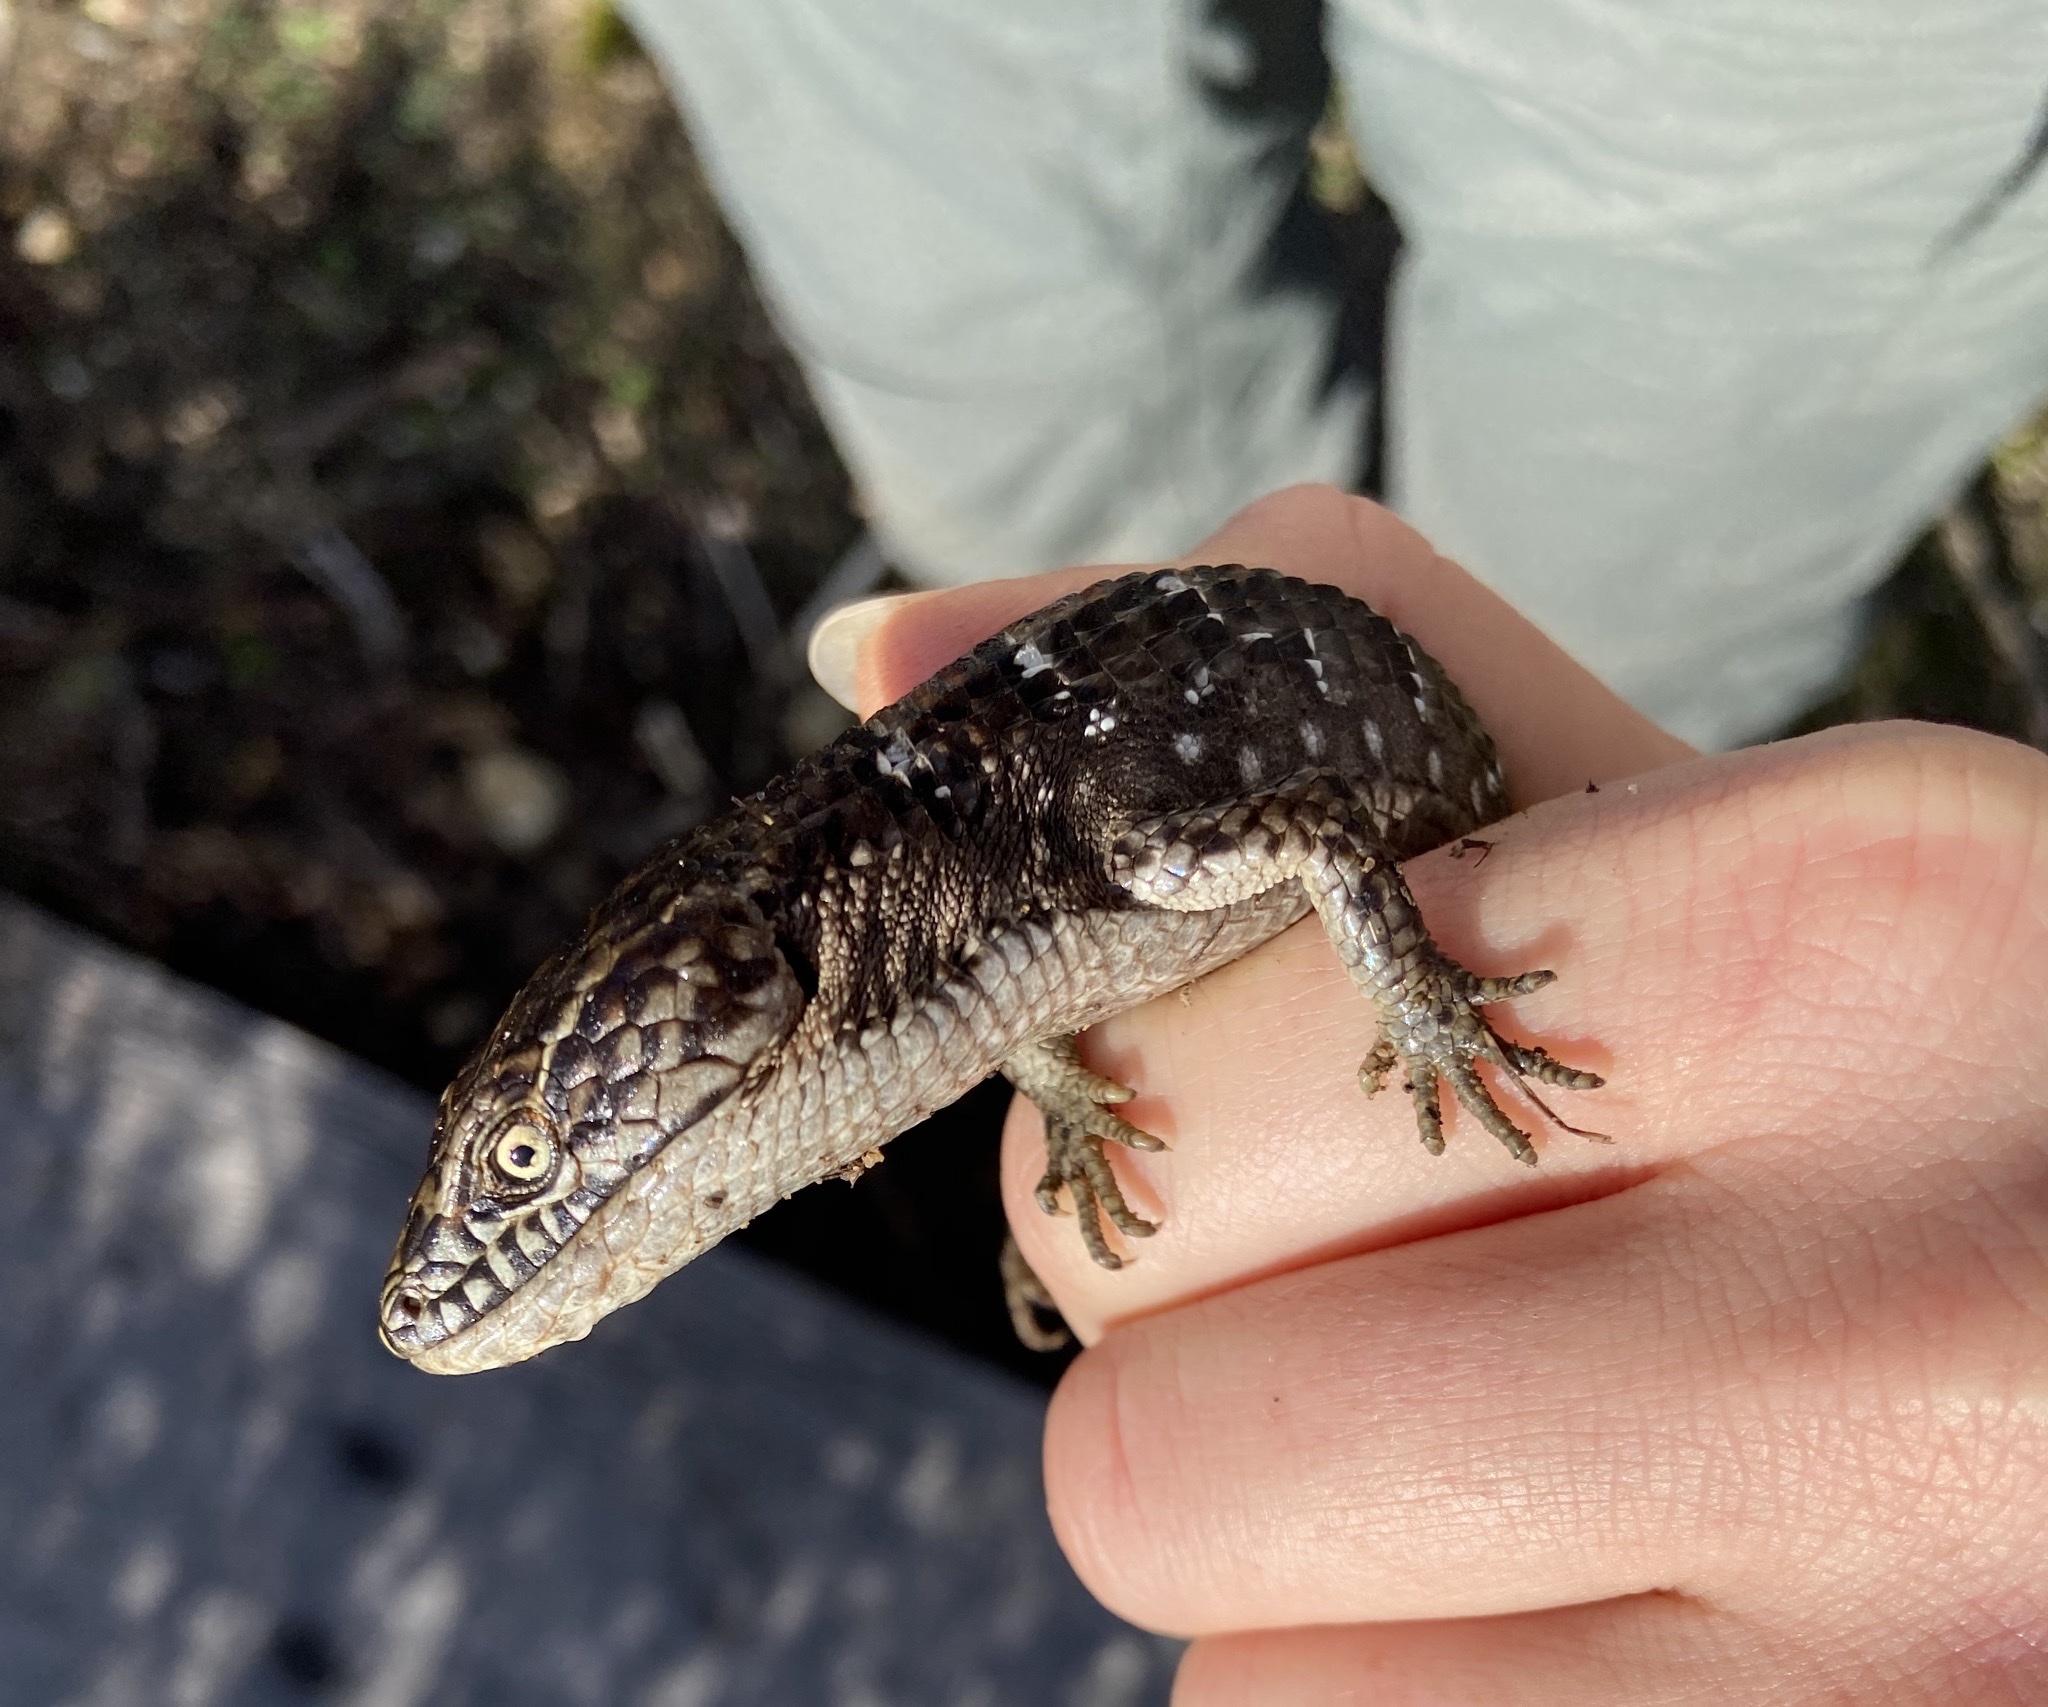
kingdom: Animalia
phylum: Chordata
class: Squamata
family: Anguidae
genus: Elgaria
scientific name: Elgaria multicarinata
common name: Southern alligator lizard
